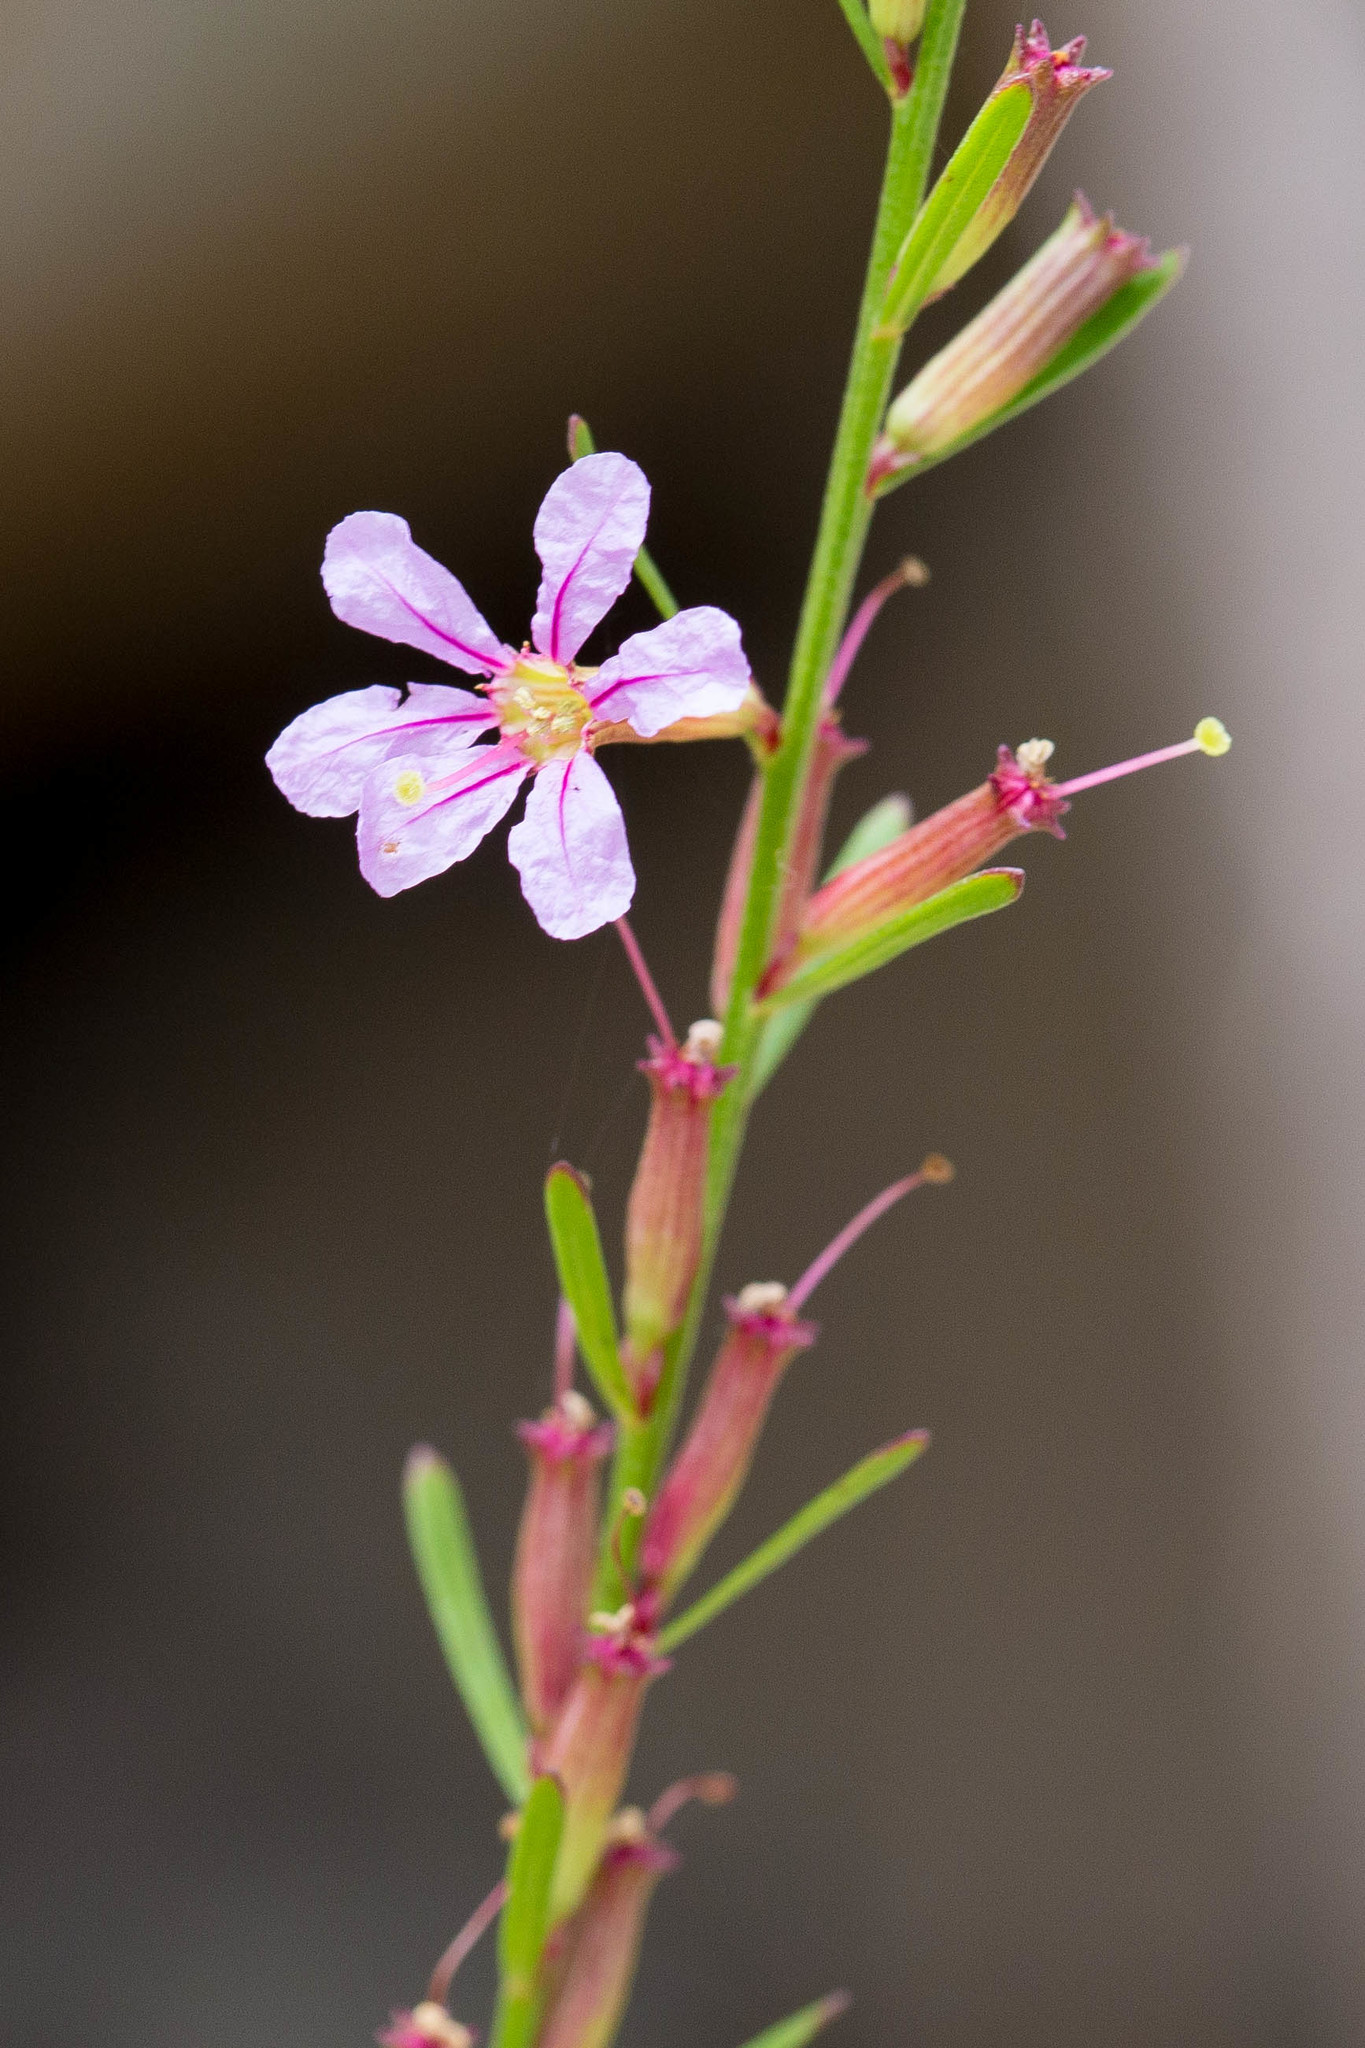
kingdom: Plantae
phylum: Tracheophyta
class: Magnoliopsida
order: Myrtales
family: Lythraceae
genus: Lythrum
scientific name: Lythrum californicum
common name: California loosestrife
